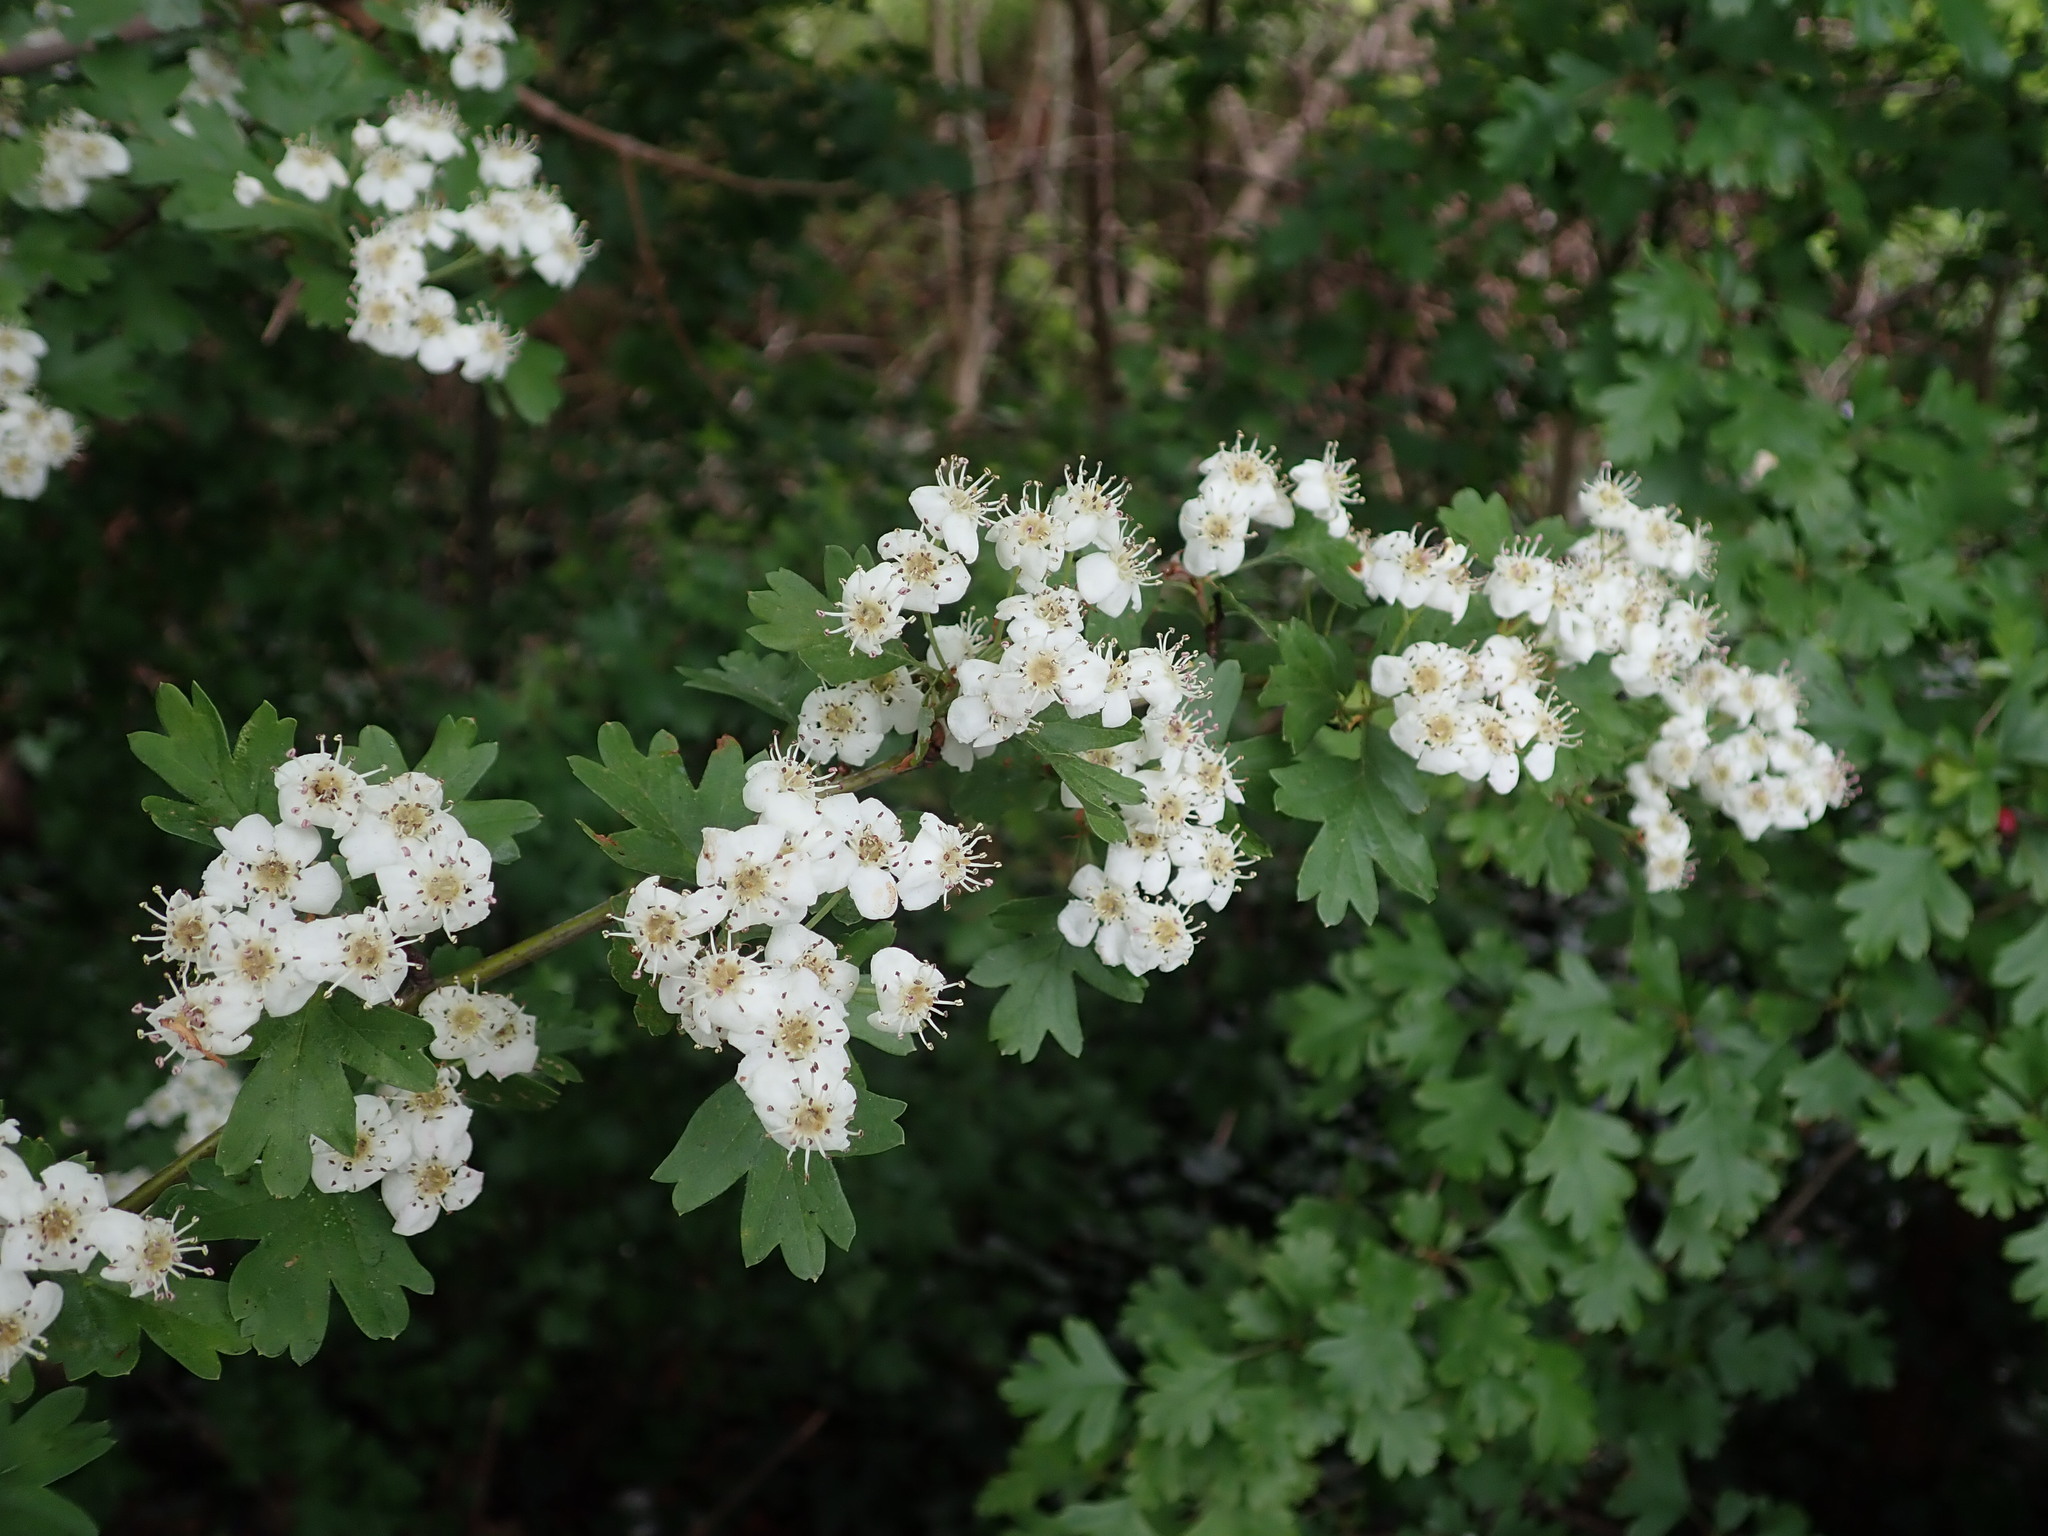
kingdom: Plantae
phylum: Tracheophyta
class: Magnoliopsida
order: Rosales
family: Rosaceae
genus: Crataegus
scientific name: Crataegus monogyna
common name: Hawthorn
